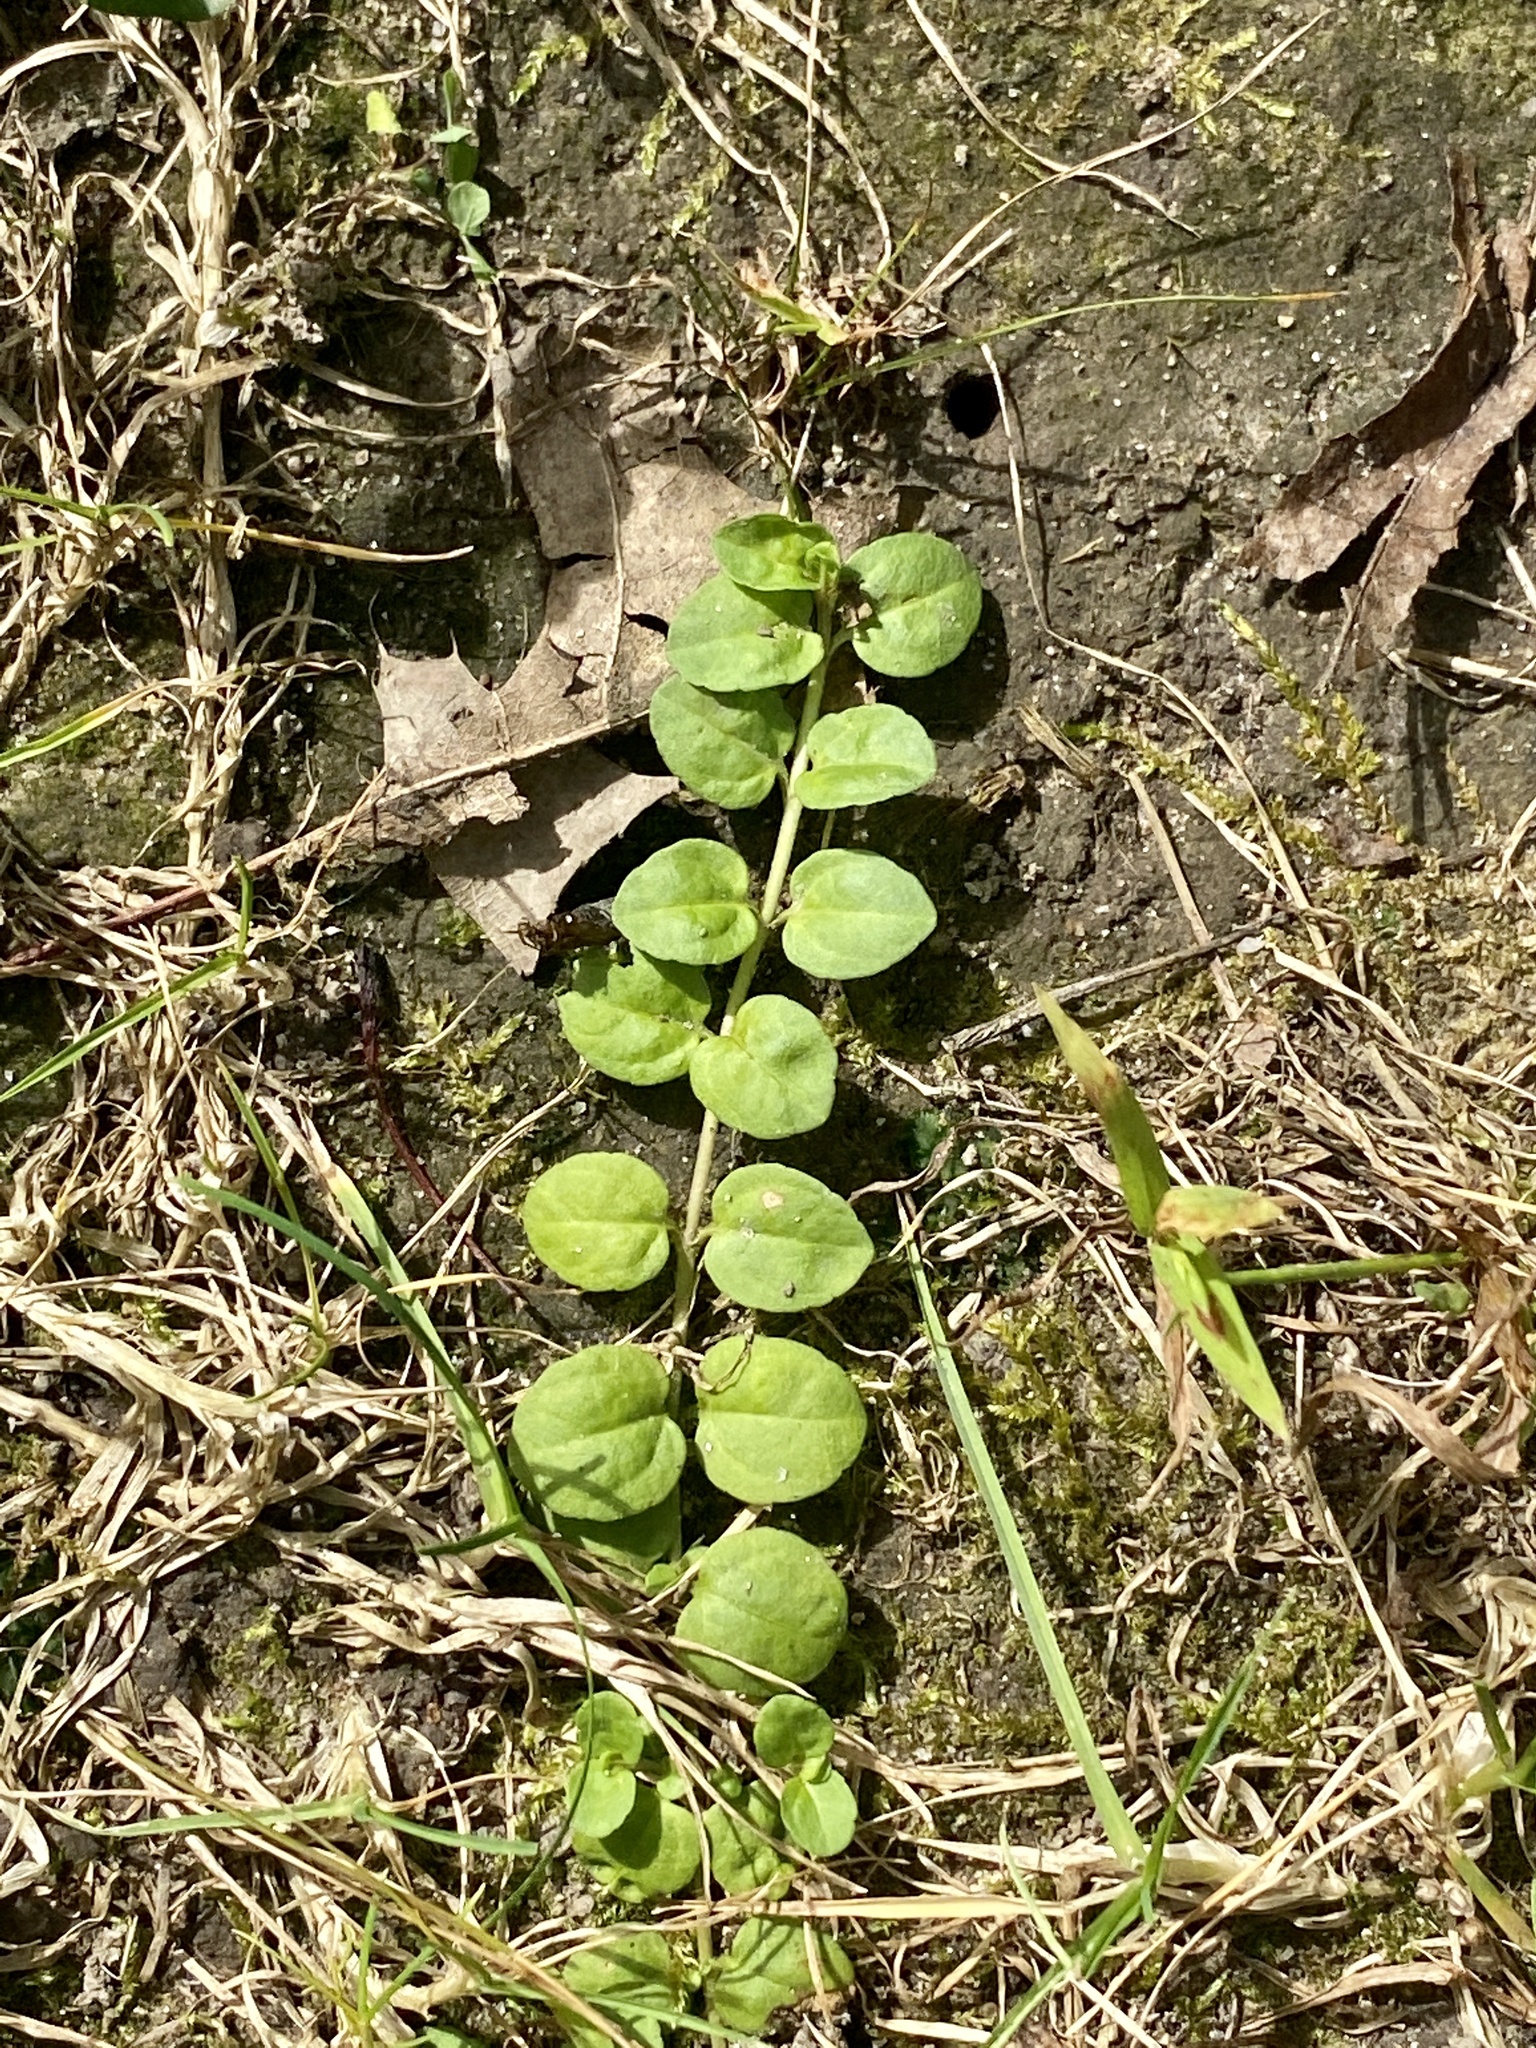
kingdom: Plantae
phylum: Tracheophyta
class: Magnoliopsida
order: Lamiales
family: Plantaginaceae
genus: Veronica
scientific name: Veronica serpyllifolia
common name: Thyme-leaved speedwell
